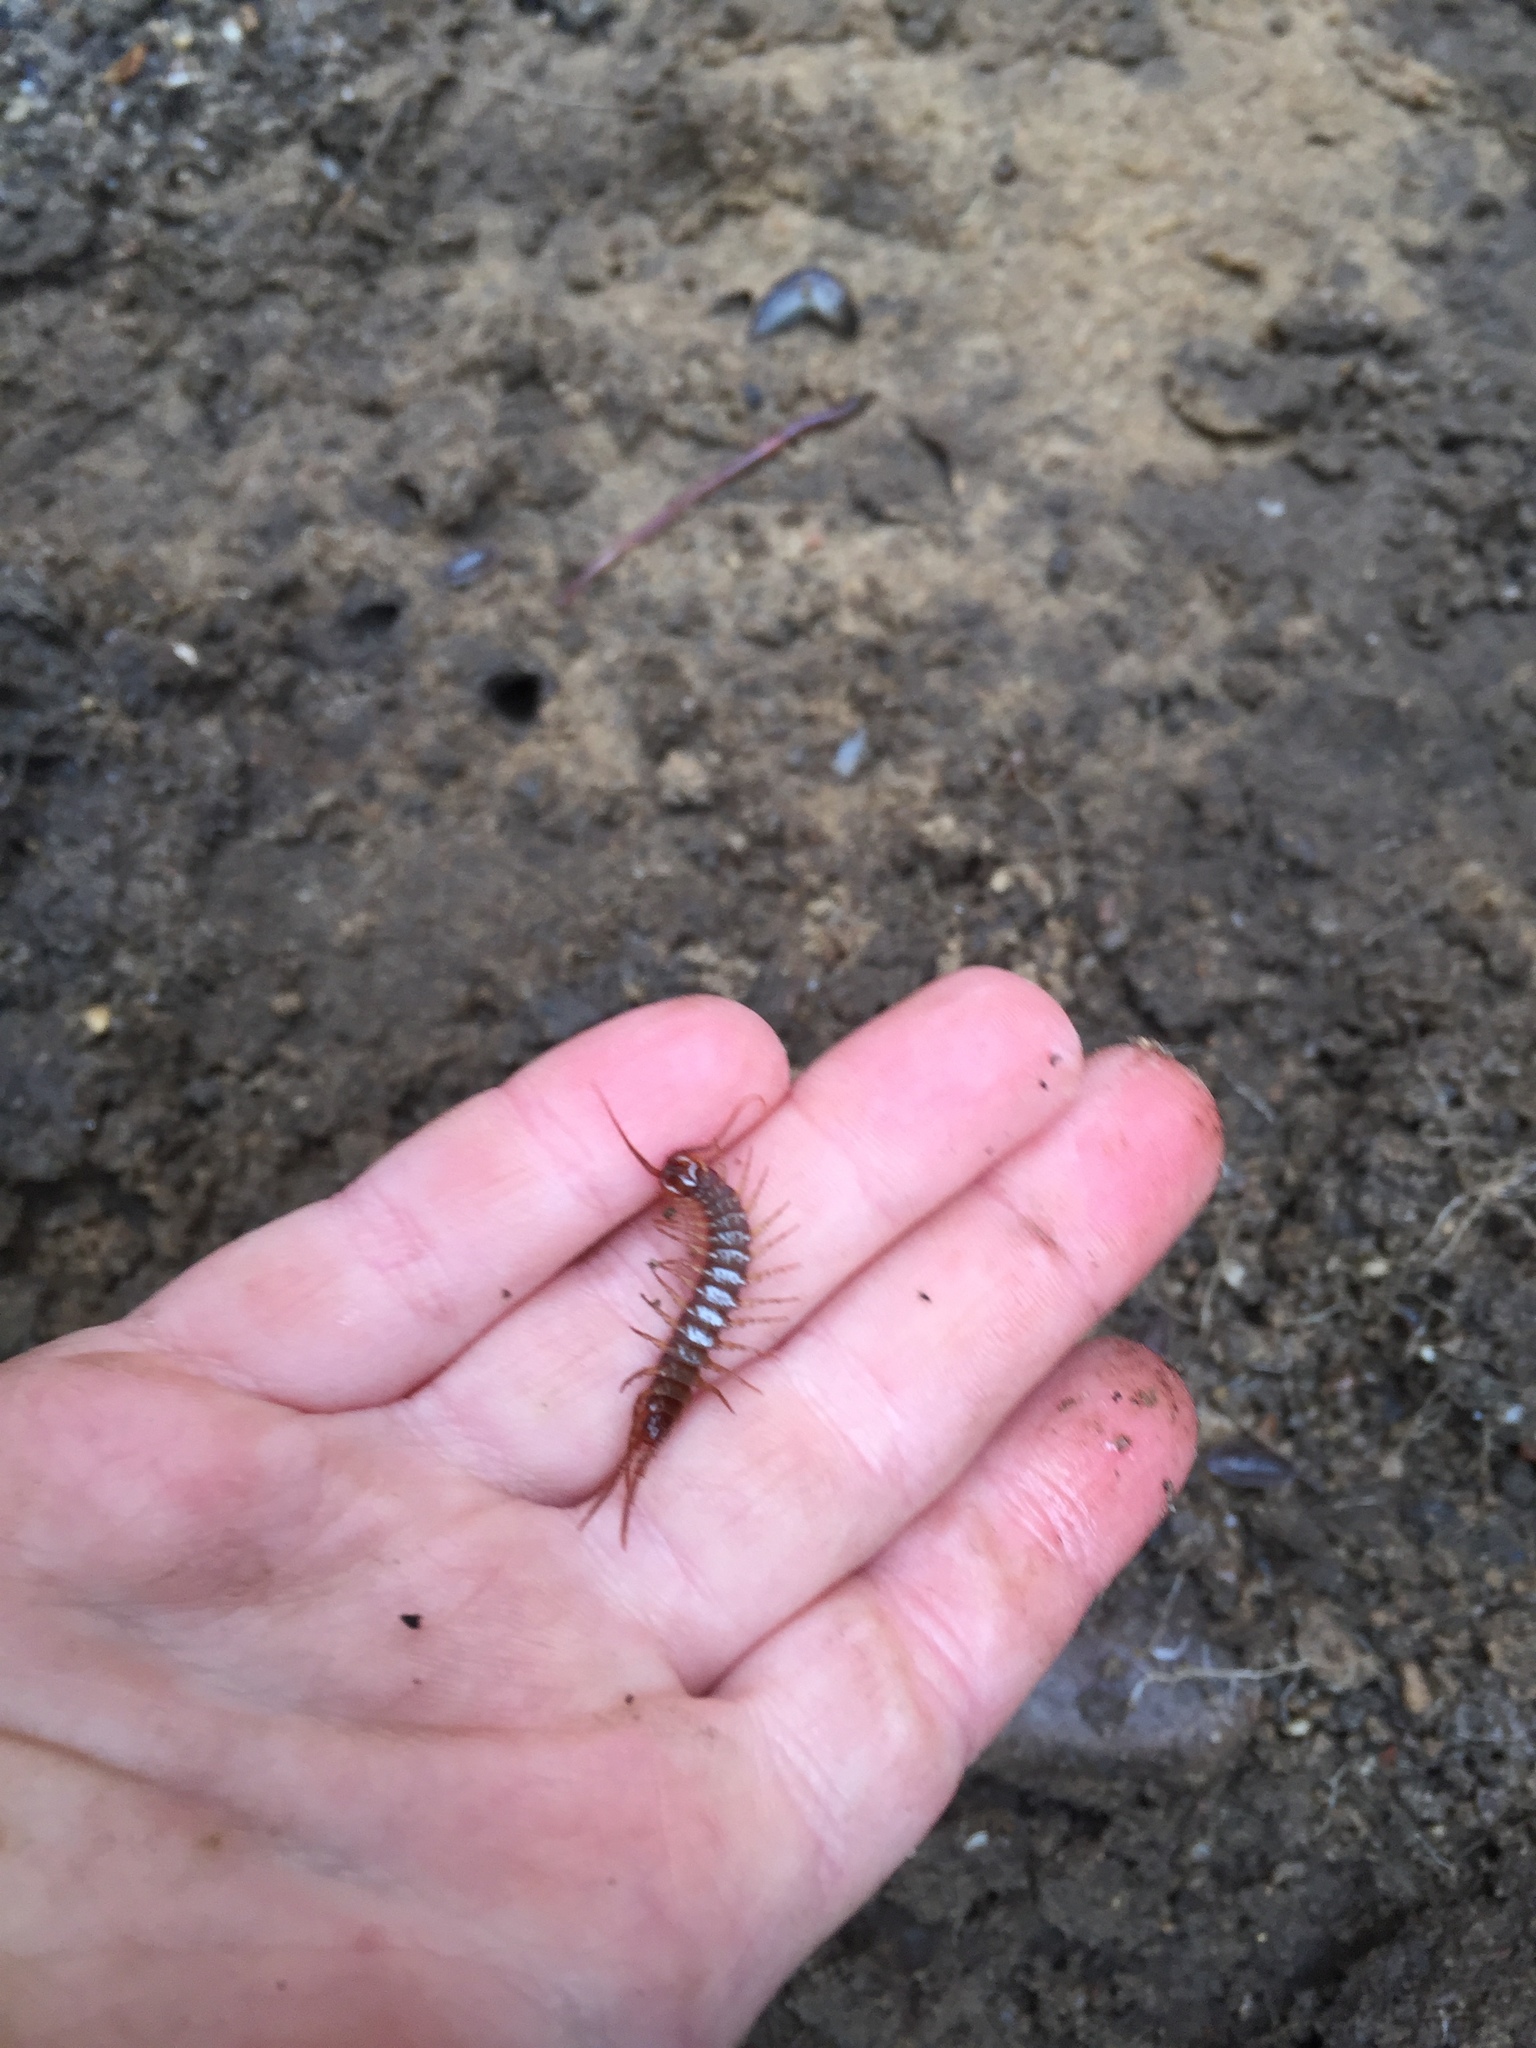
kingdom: Animalia
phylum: Arthropoda
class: Chilopoda
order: Lithobiomorpha
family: Lithobiidae
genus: Lithobius
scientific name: Lithobius forficatus
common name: Centipede
